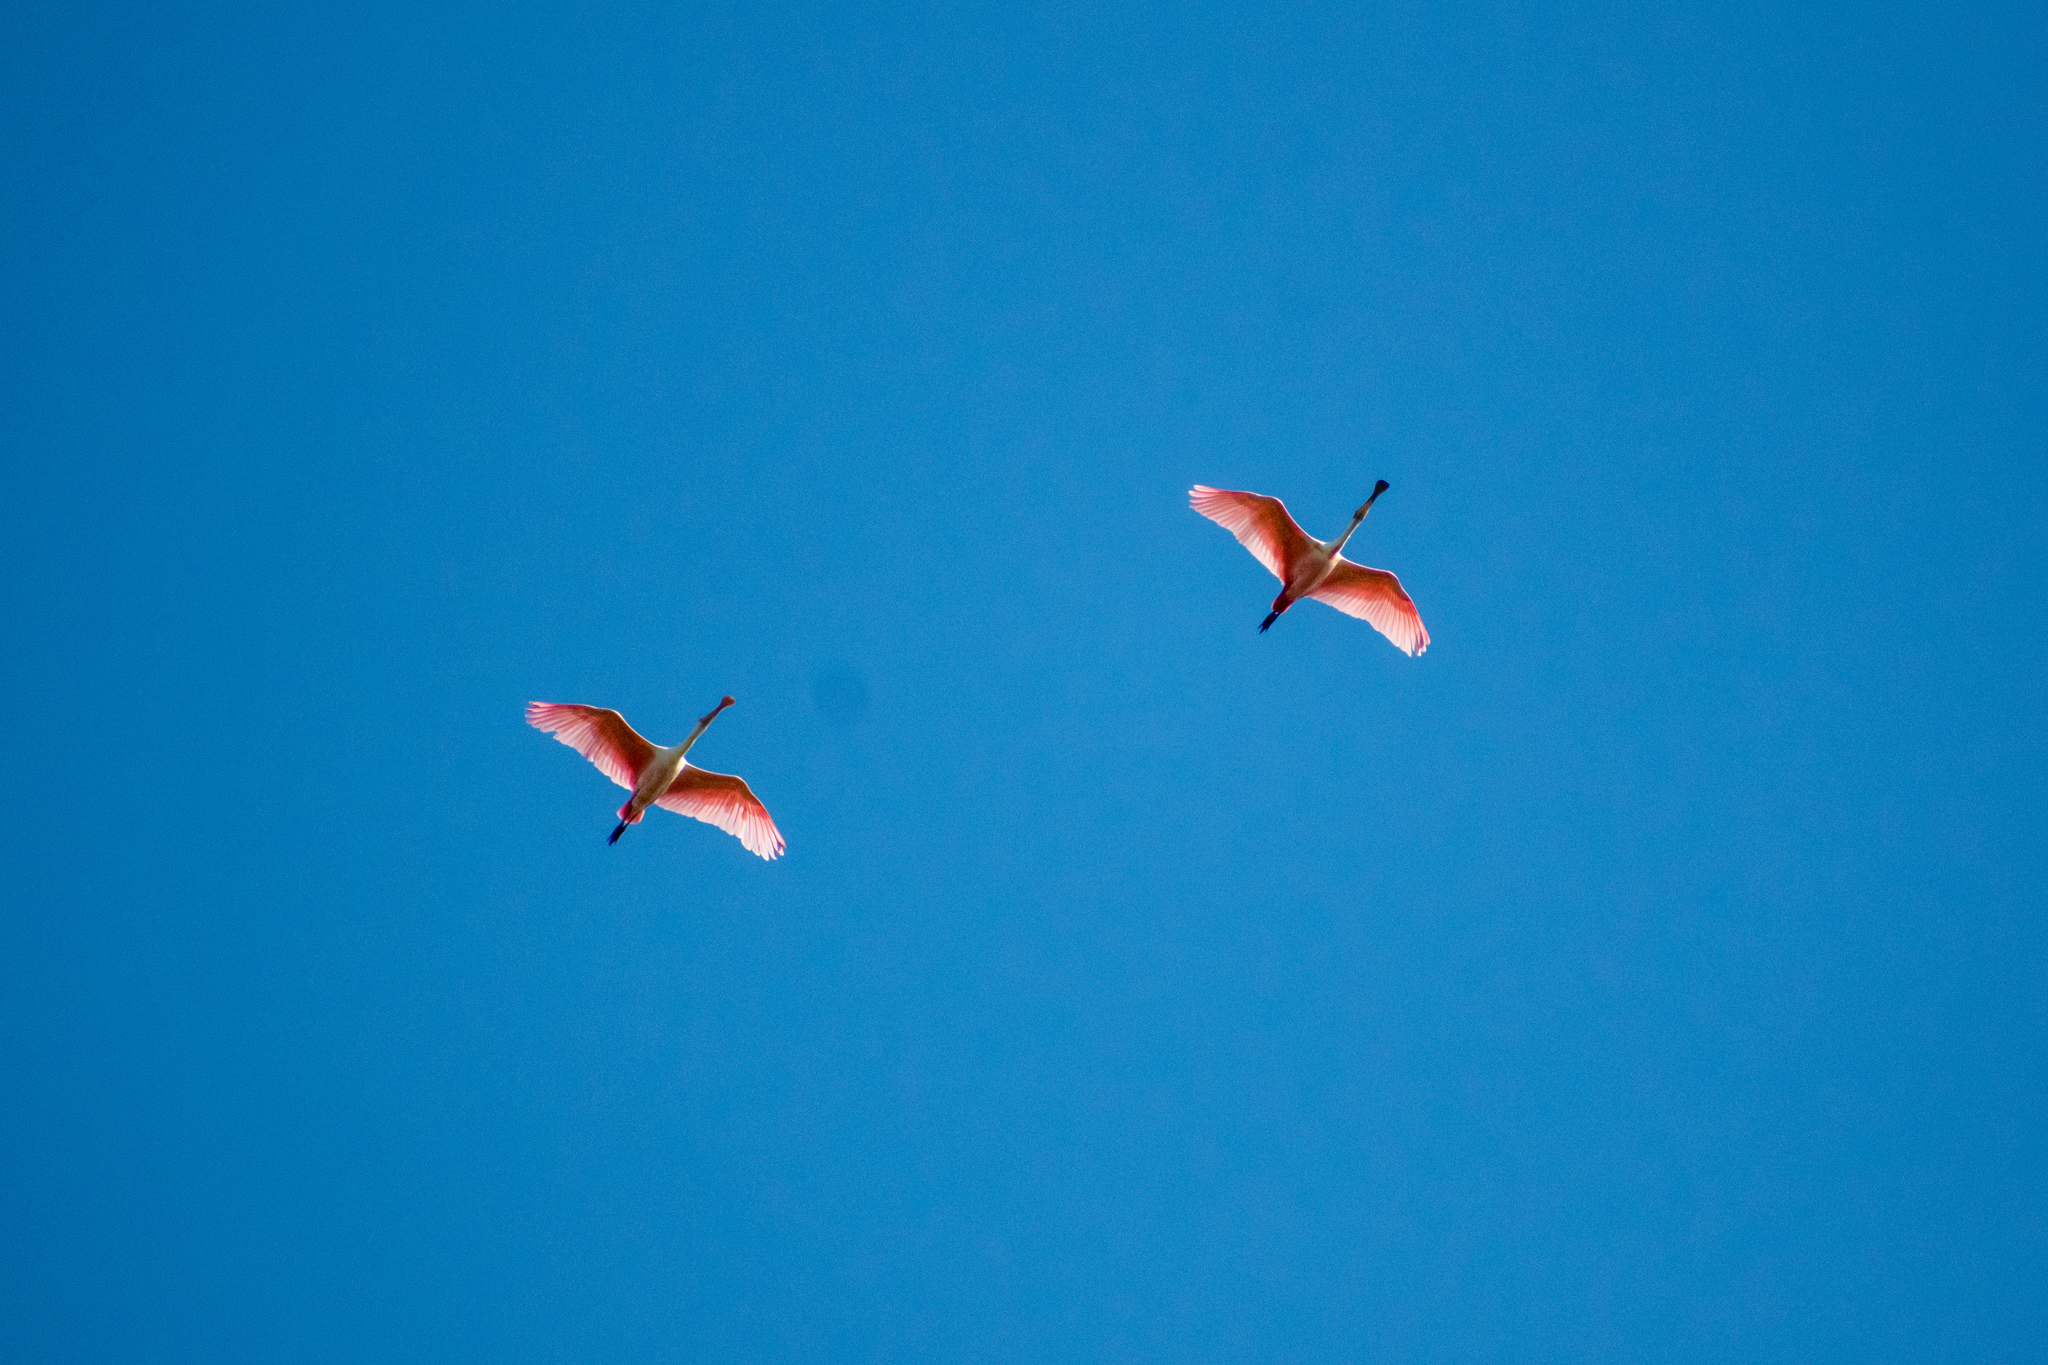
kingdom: Animalia
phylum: Chordata
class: Aves
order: Pelecaniformes
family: Threskiornithidae
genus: Platalea
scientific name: Platalea ajaja
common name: Roseate spoonbill
